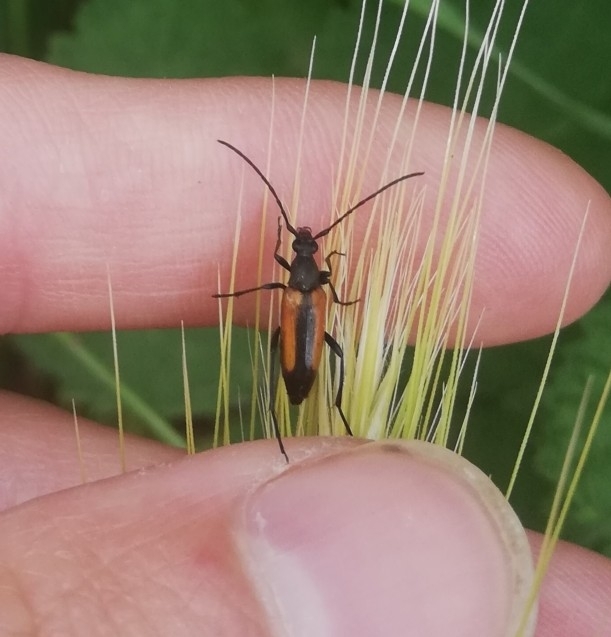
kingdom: Animalia
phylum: Arthropoda
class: Insecta
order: Coleoptera
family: Cerambycidae
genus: Stenurella
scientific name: Stenurella melanura
